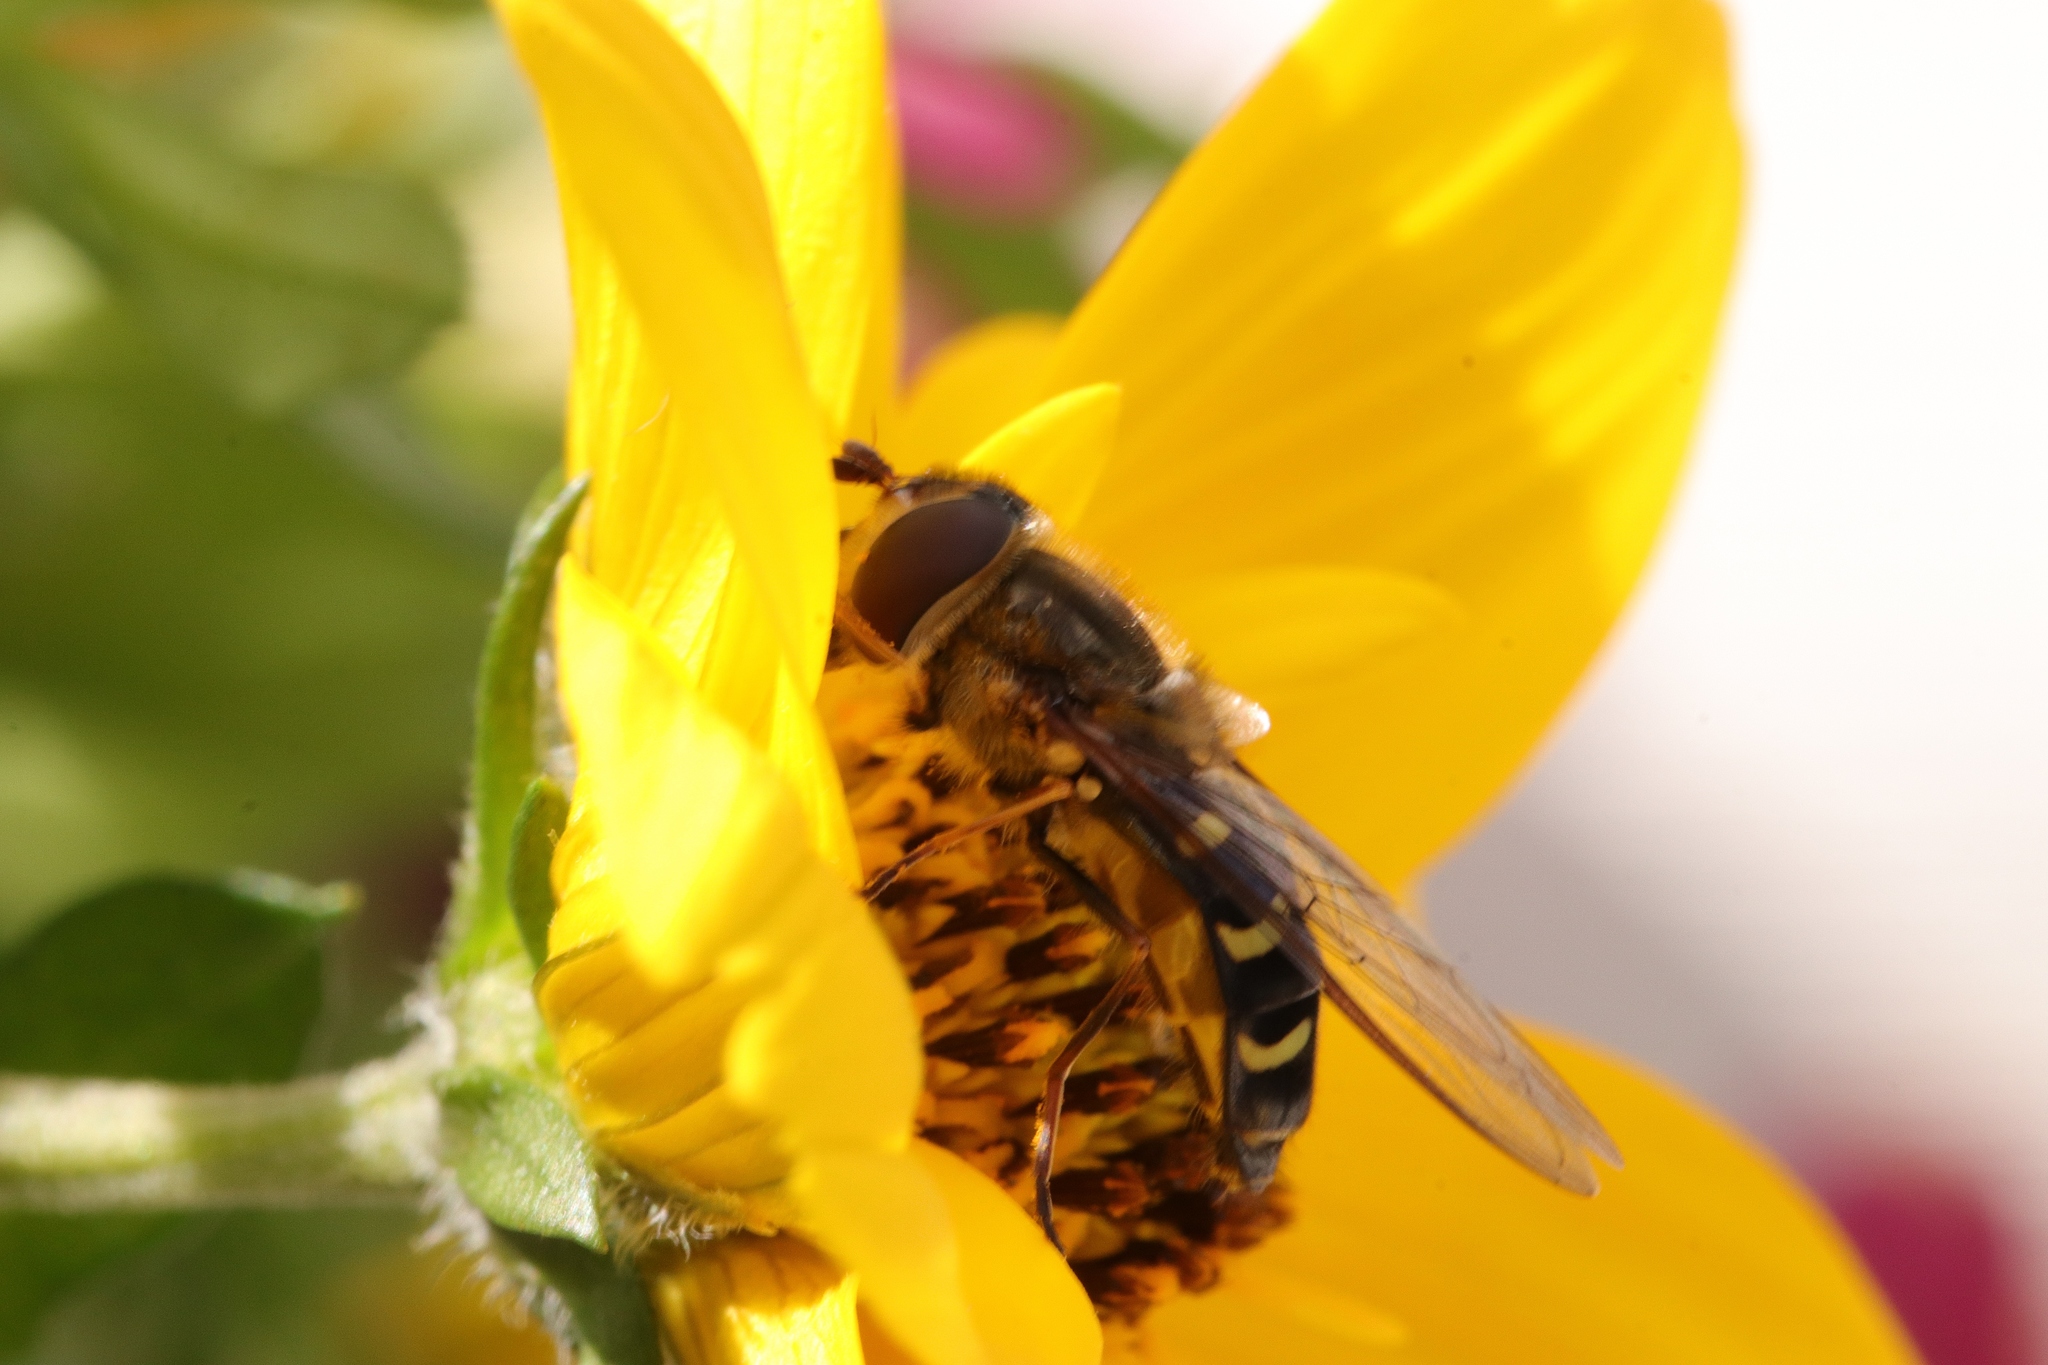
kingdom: Animalia
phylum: Arthropoda
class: Insecta
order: Diptera
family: Syrphidae
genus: Lapposyrphus
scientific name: Lapposyrphus lapponicus
